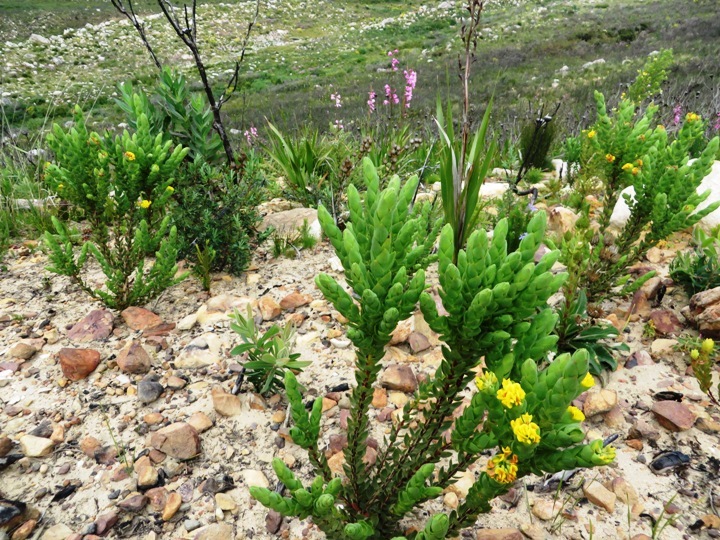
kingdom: Plantae
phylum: Tracheophyta
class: Magnoliopsida
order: Fabales
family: Fabaceae
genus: Aspalathus
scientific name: Aspalathus elliptica
